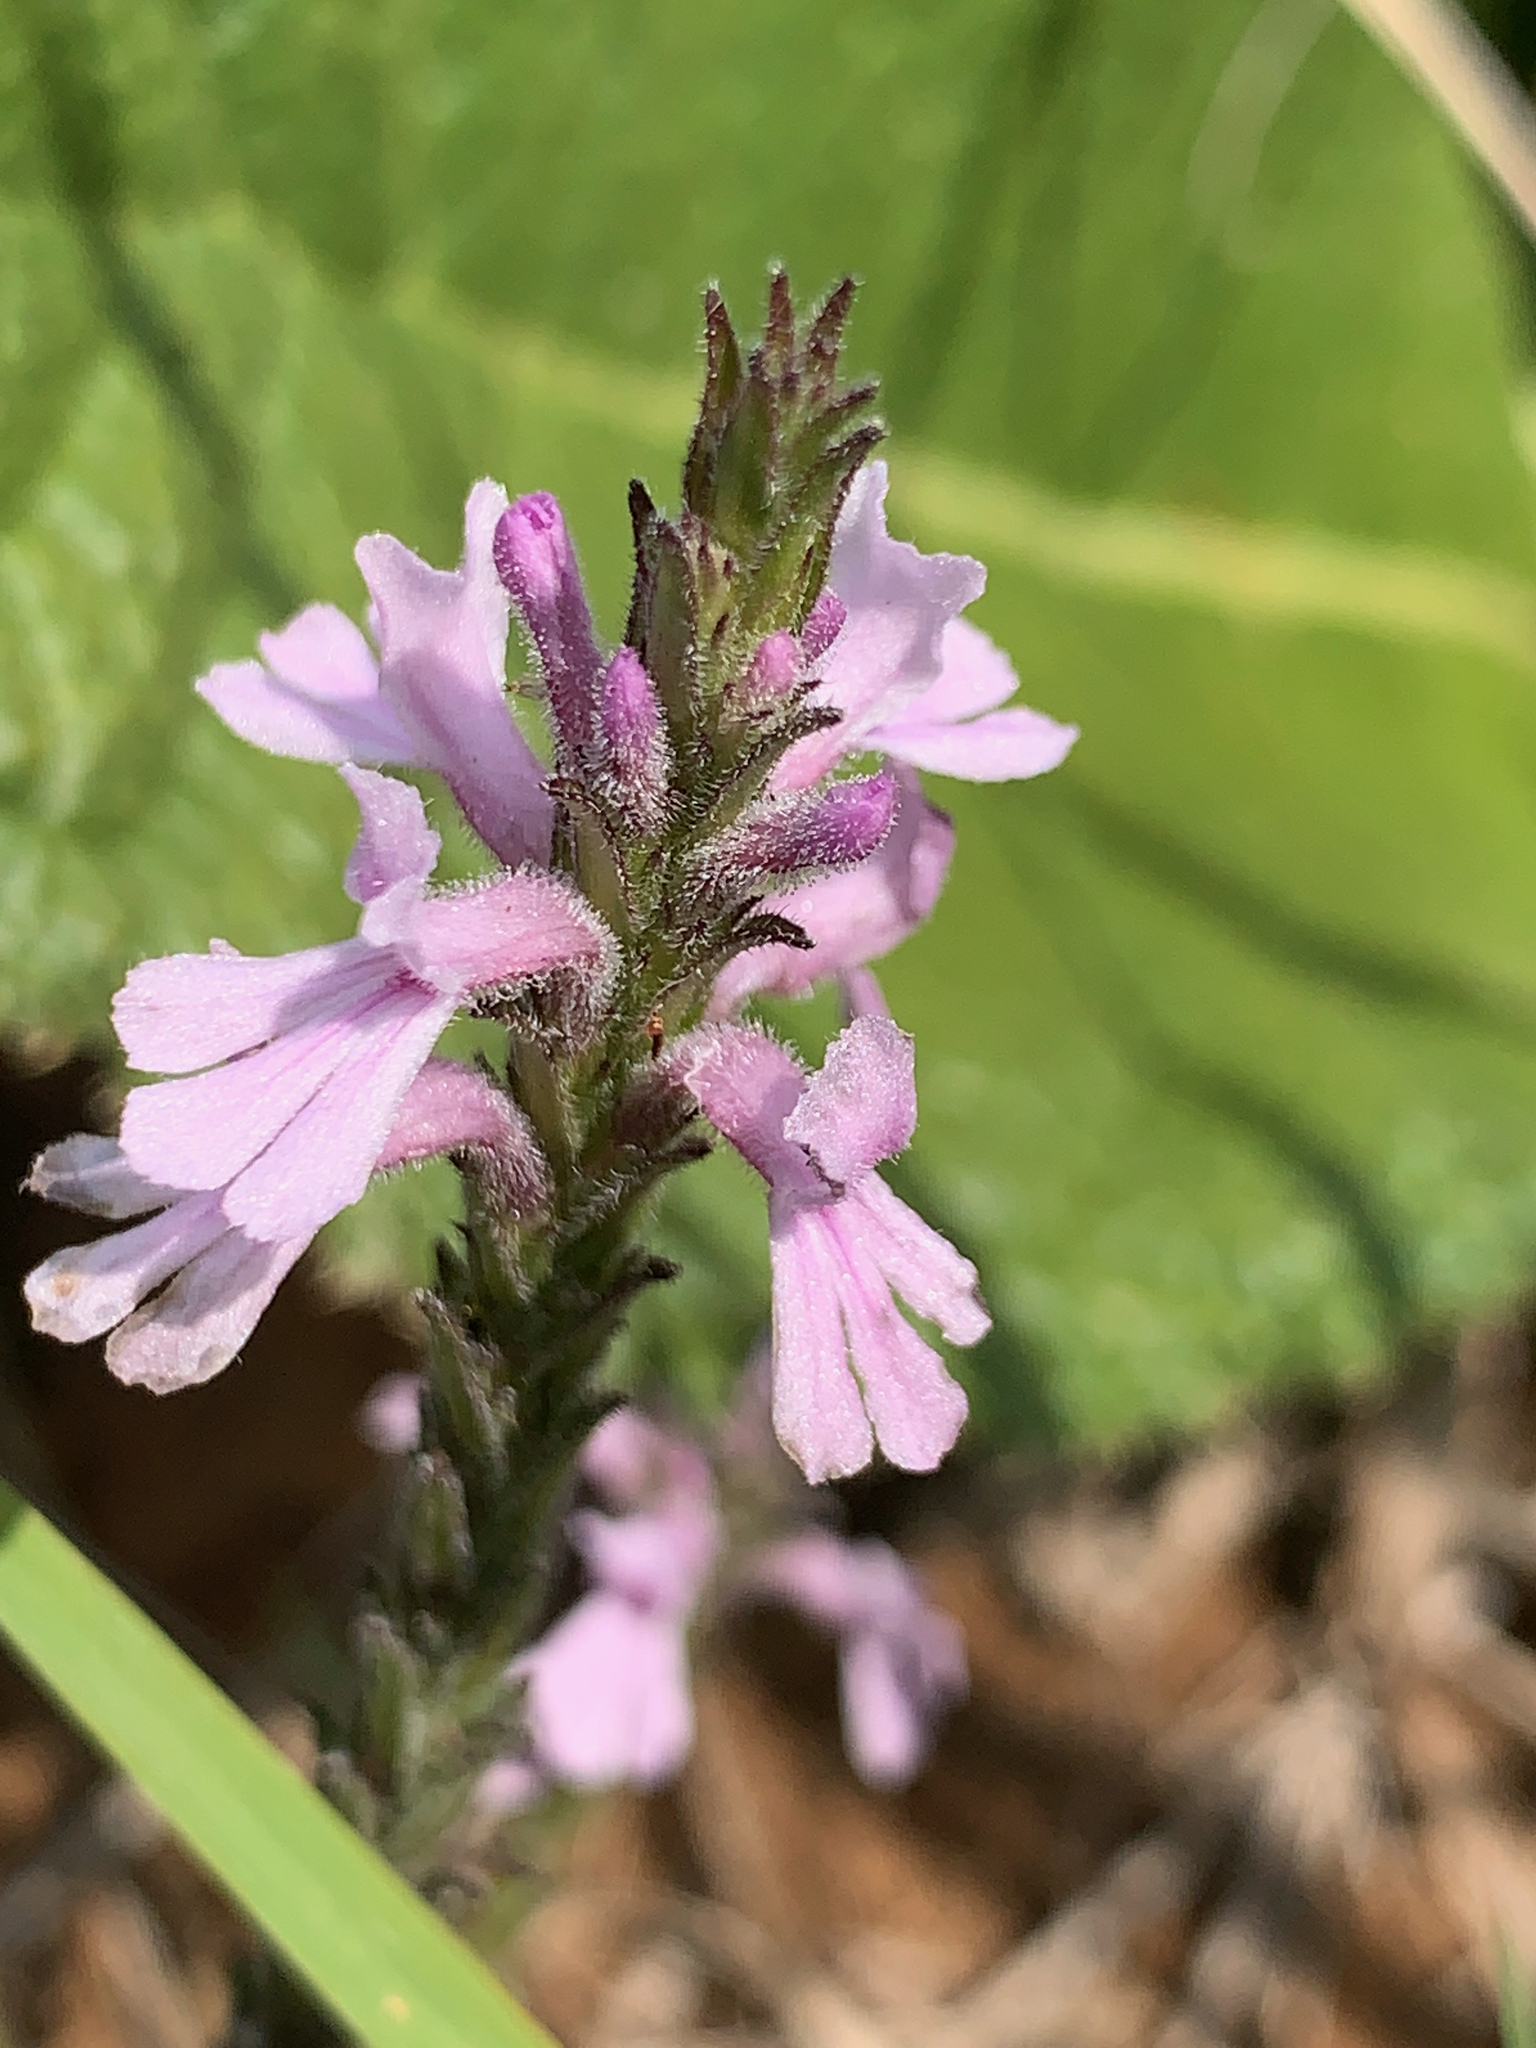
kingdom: Plantae
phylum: Tracheophyta
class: Magnoliopsida
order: Lamiales
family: Orobanchaceae
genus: Striga
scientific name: Striga bilabiata
